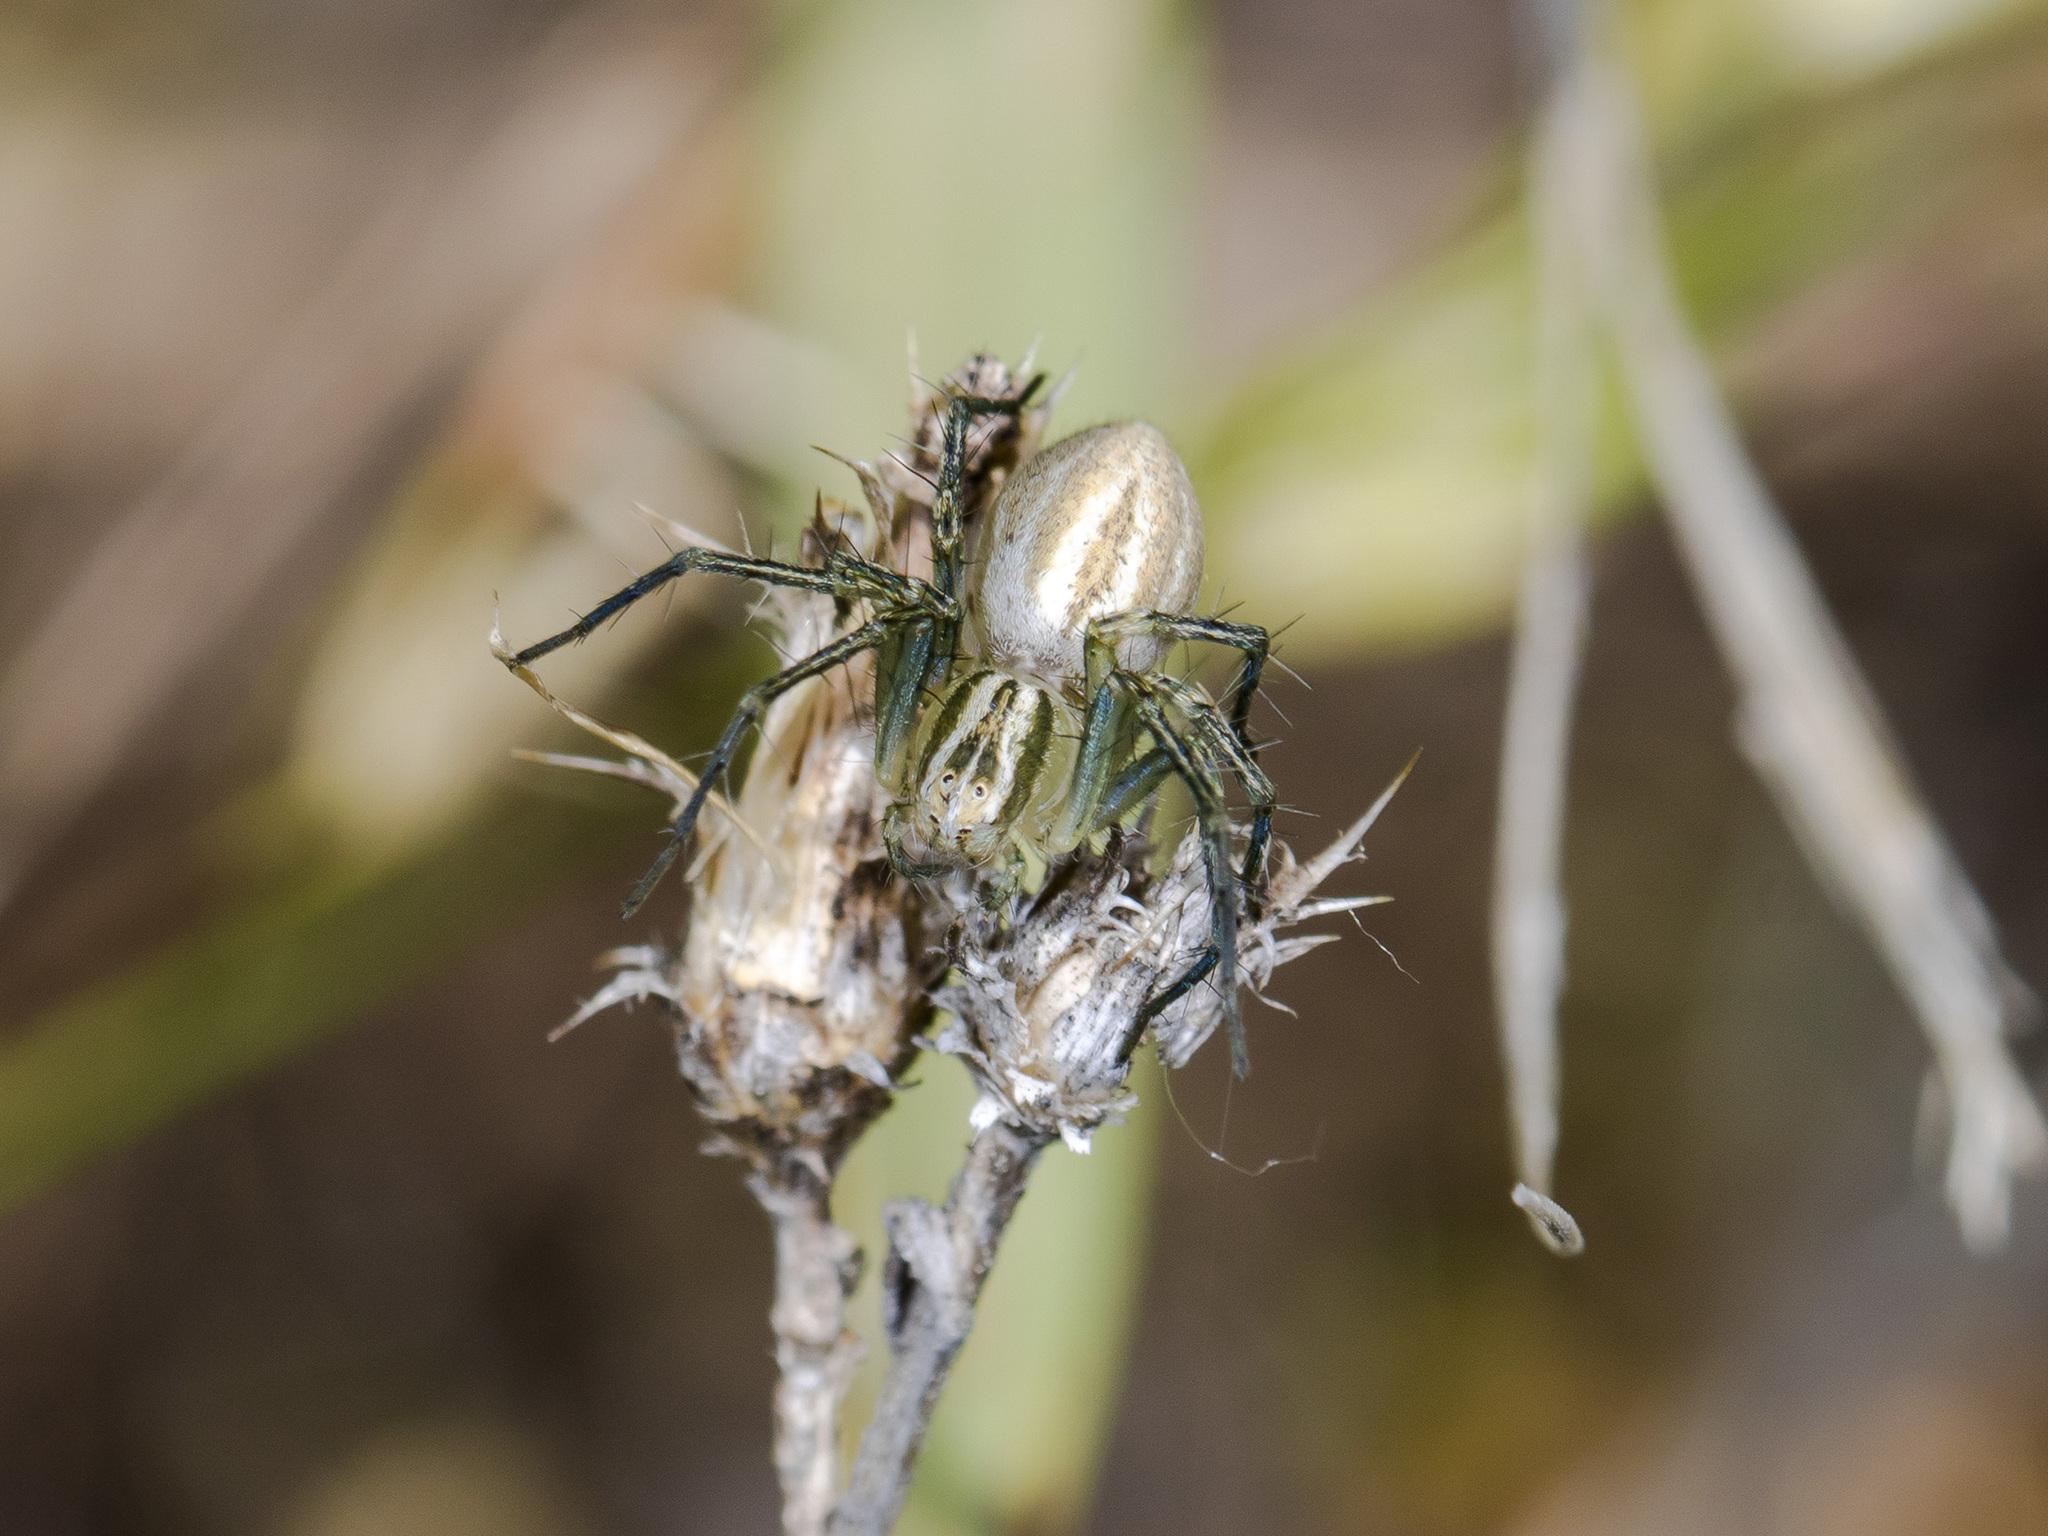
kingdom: Animalia
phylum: Arthropoda
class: Arachnida
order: Araneae
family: Oxyopidae
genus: Oxyopes
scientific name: Oxyopes lineatus
